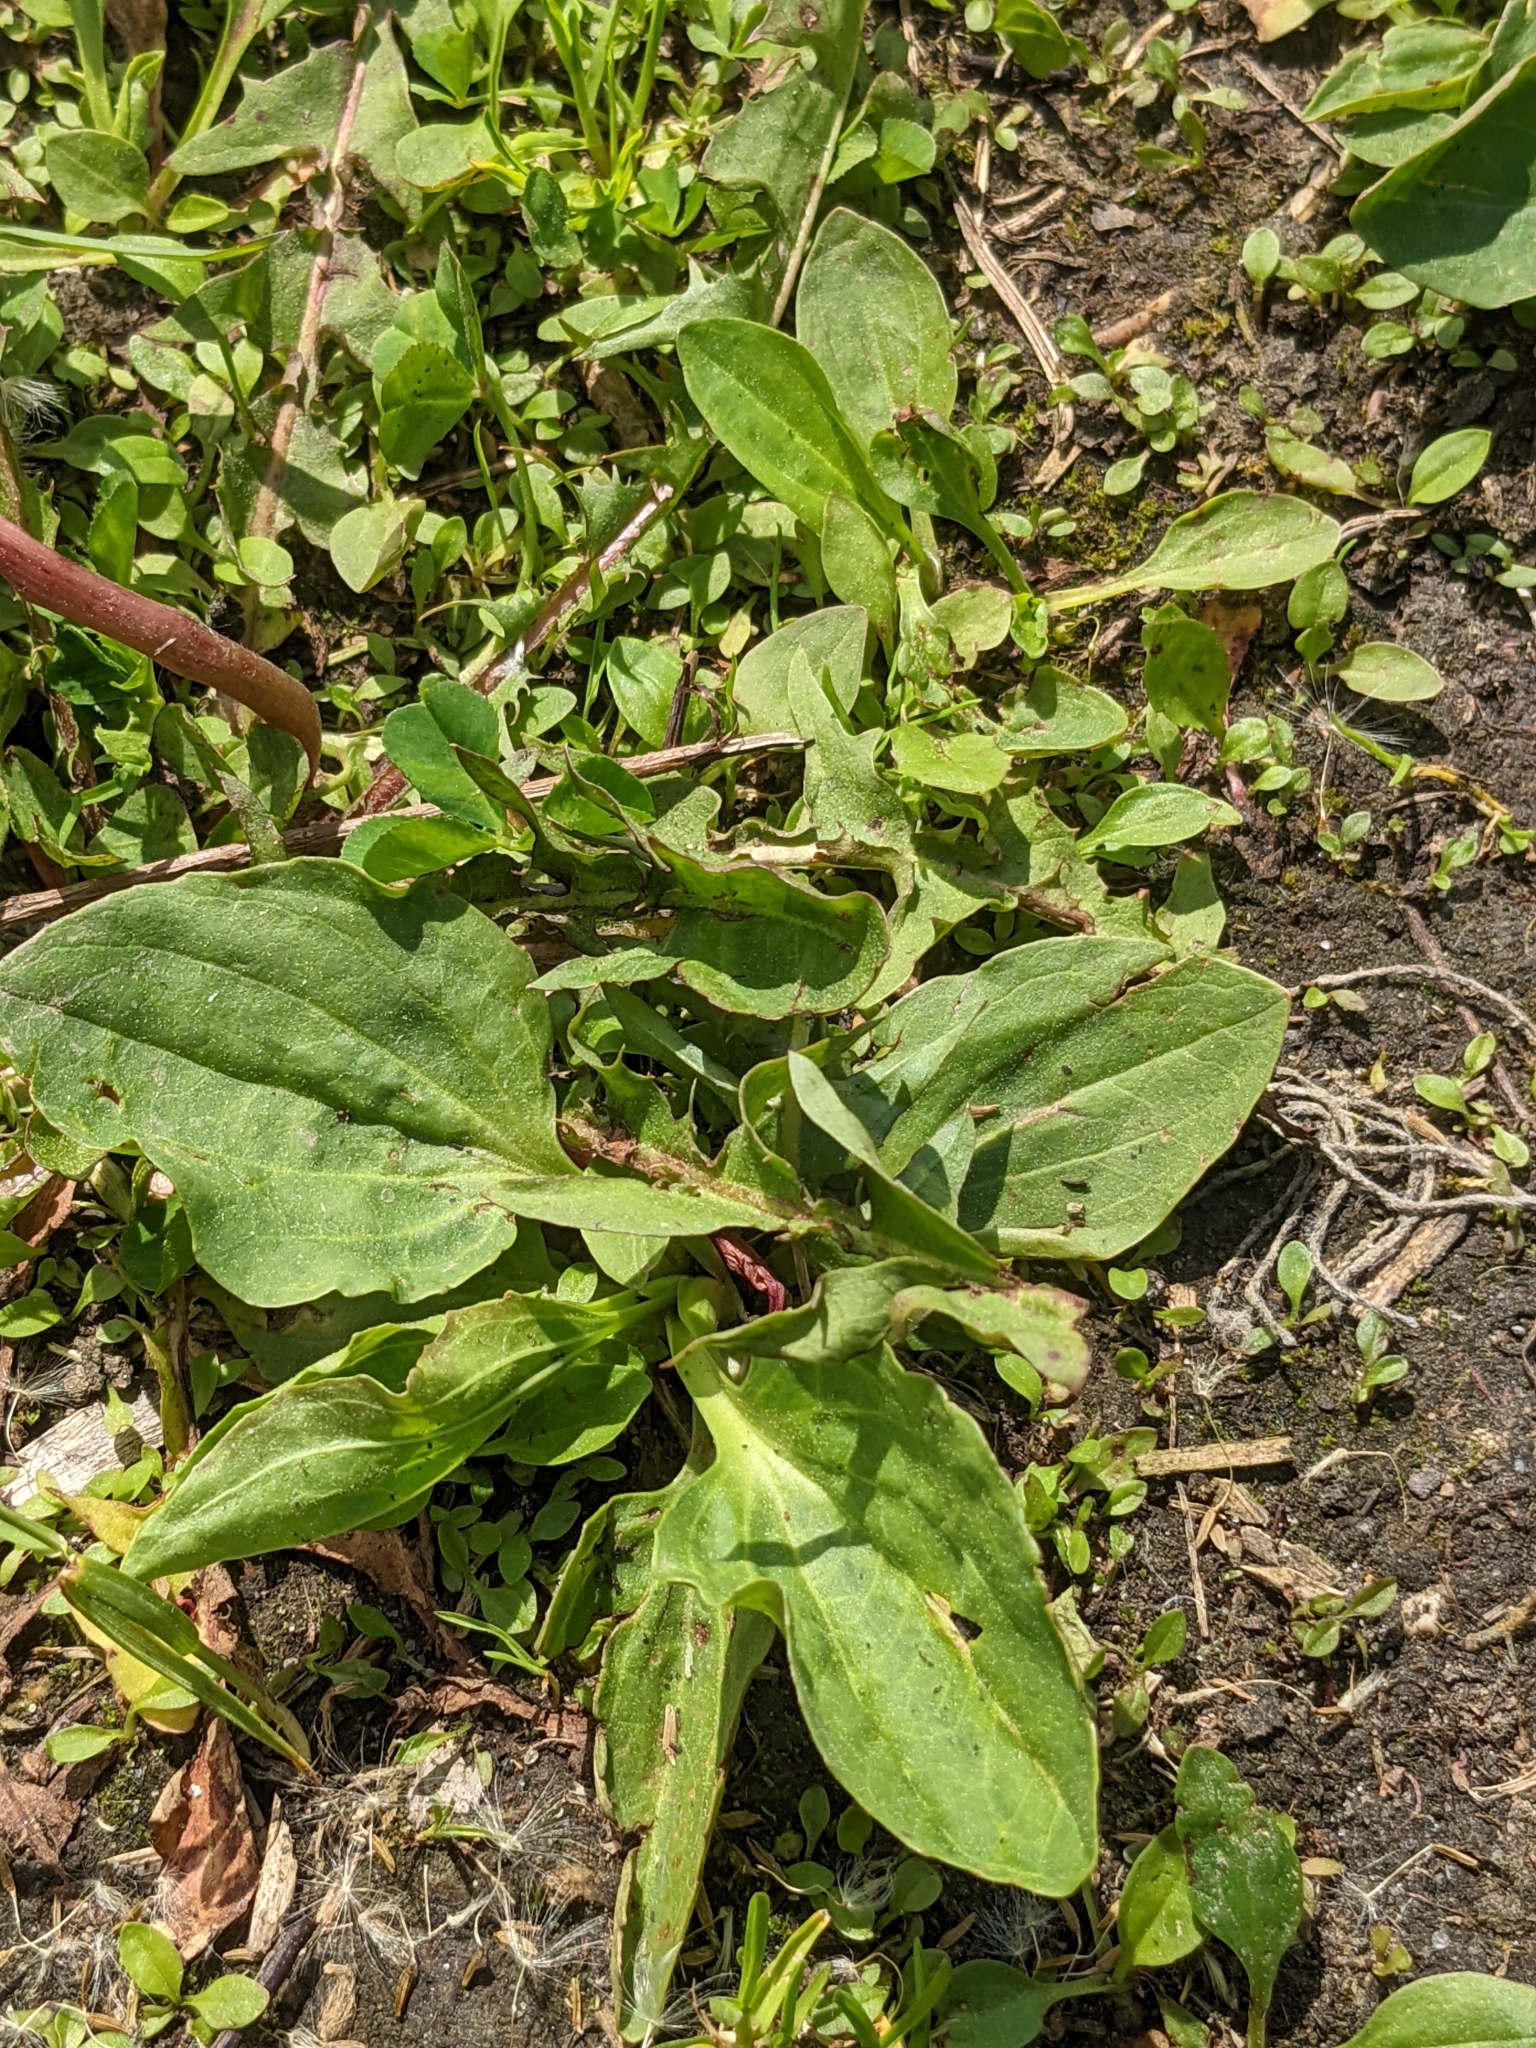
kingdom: Plantae
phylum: Tracheophyta
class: Magnoliopsida
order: Lamiales
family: Plantaginaceae
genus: Plantago
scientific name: Plantago major
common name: Common plantain
